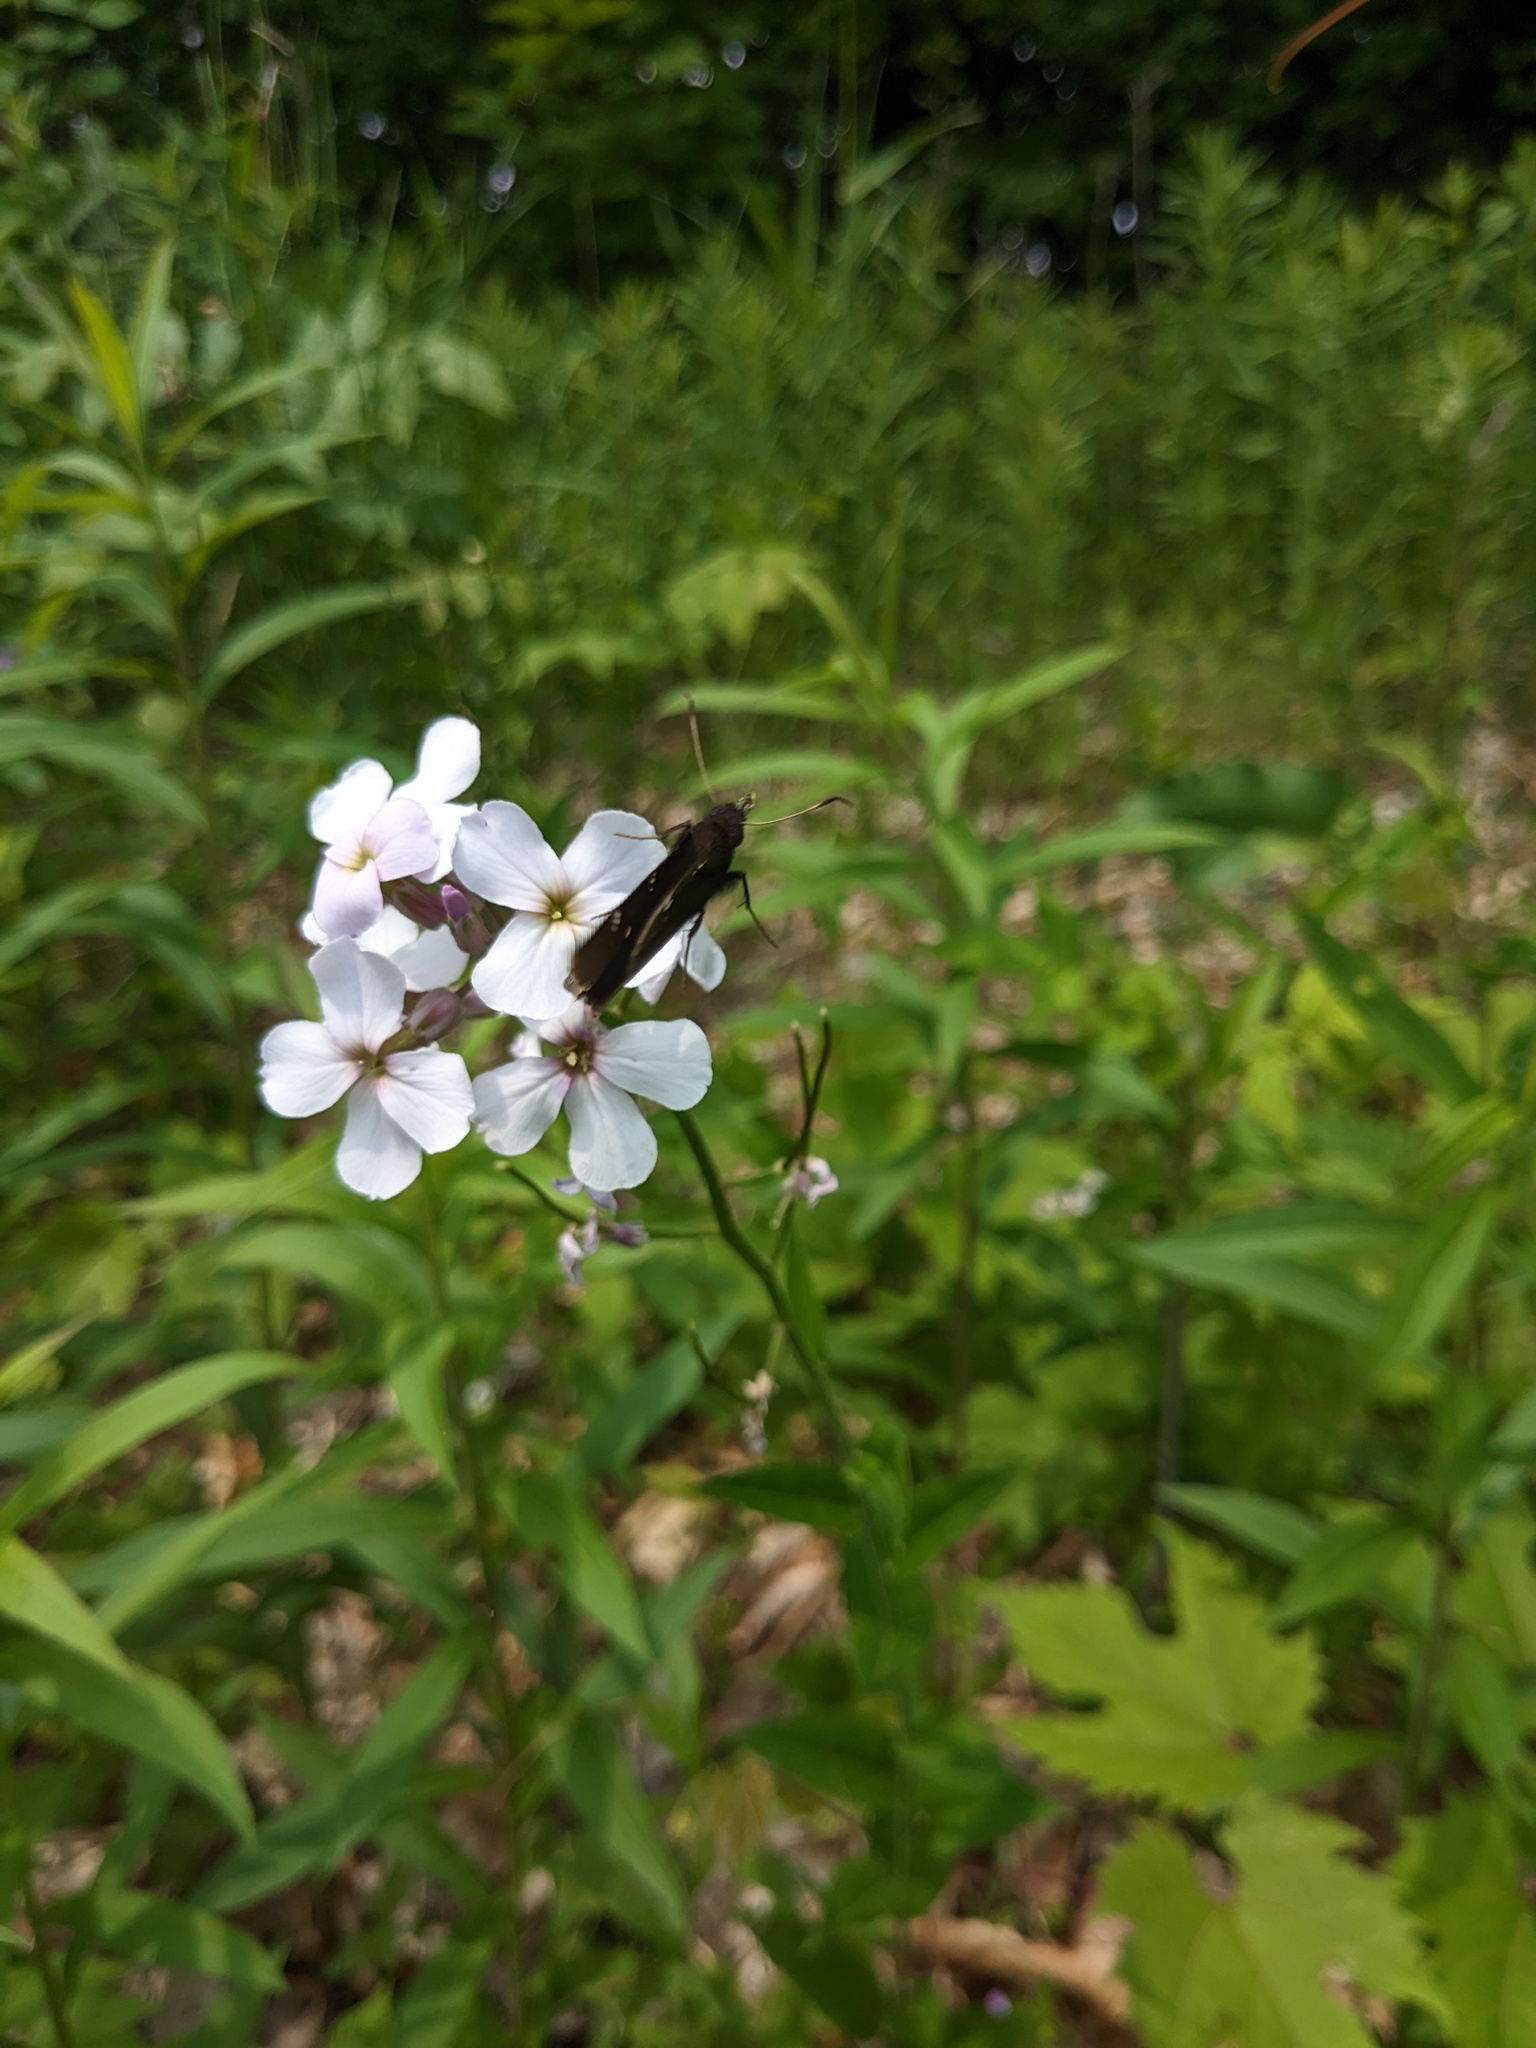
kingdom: Plantae
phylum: Tracheophyta
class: Magnoliopsida
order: Brassicales
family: Brassicaceae
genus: Hesperis
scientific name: Hesperis matronalis
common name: Dame's-violet
